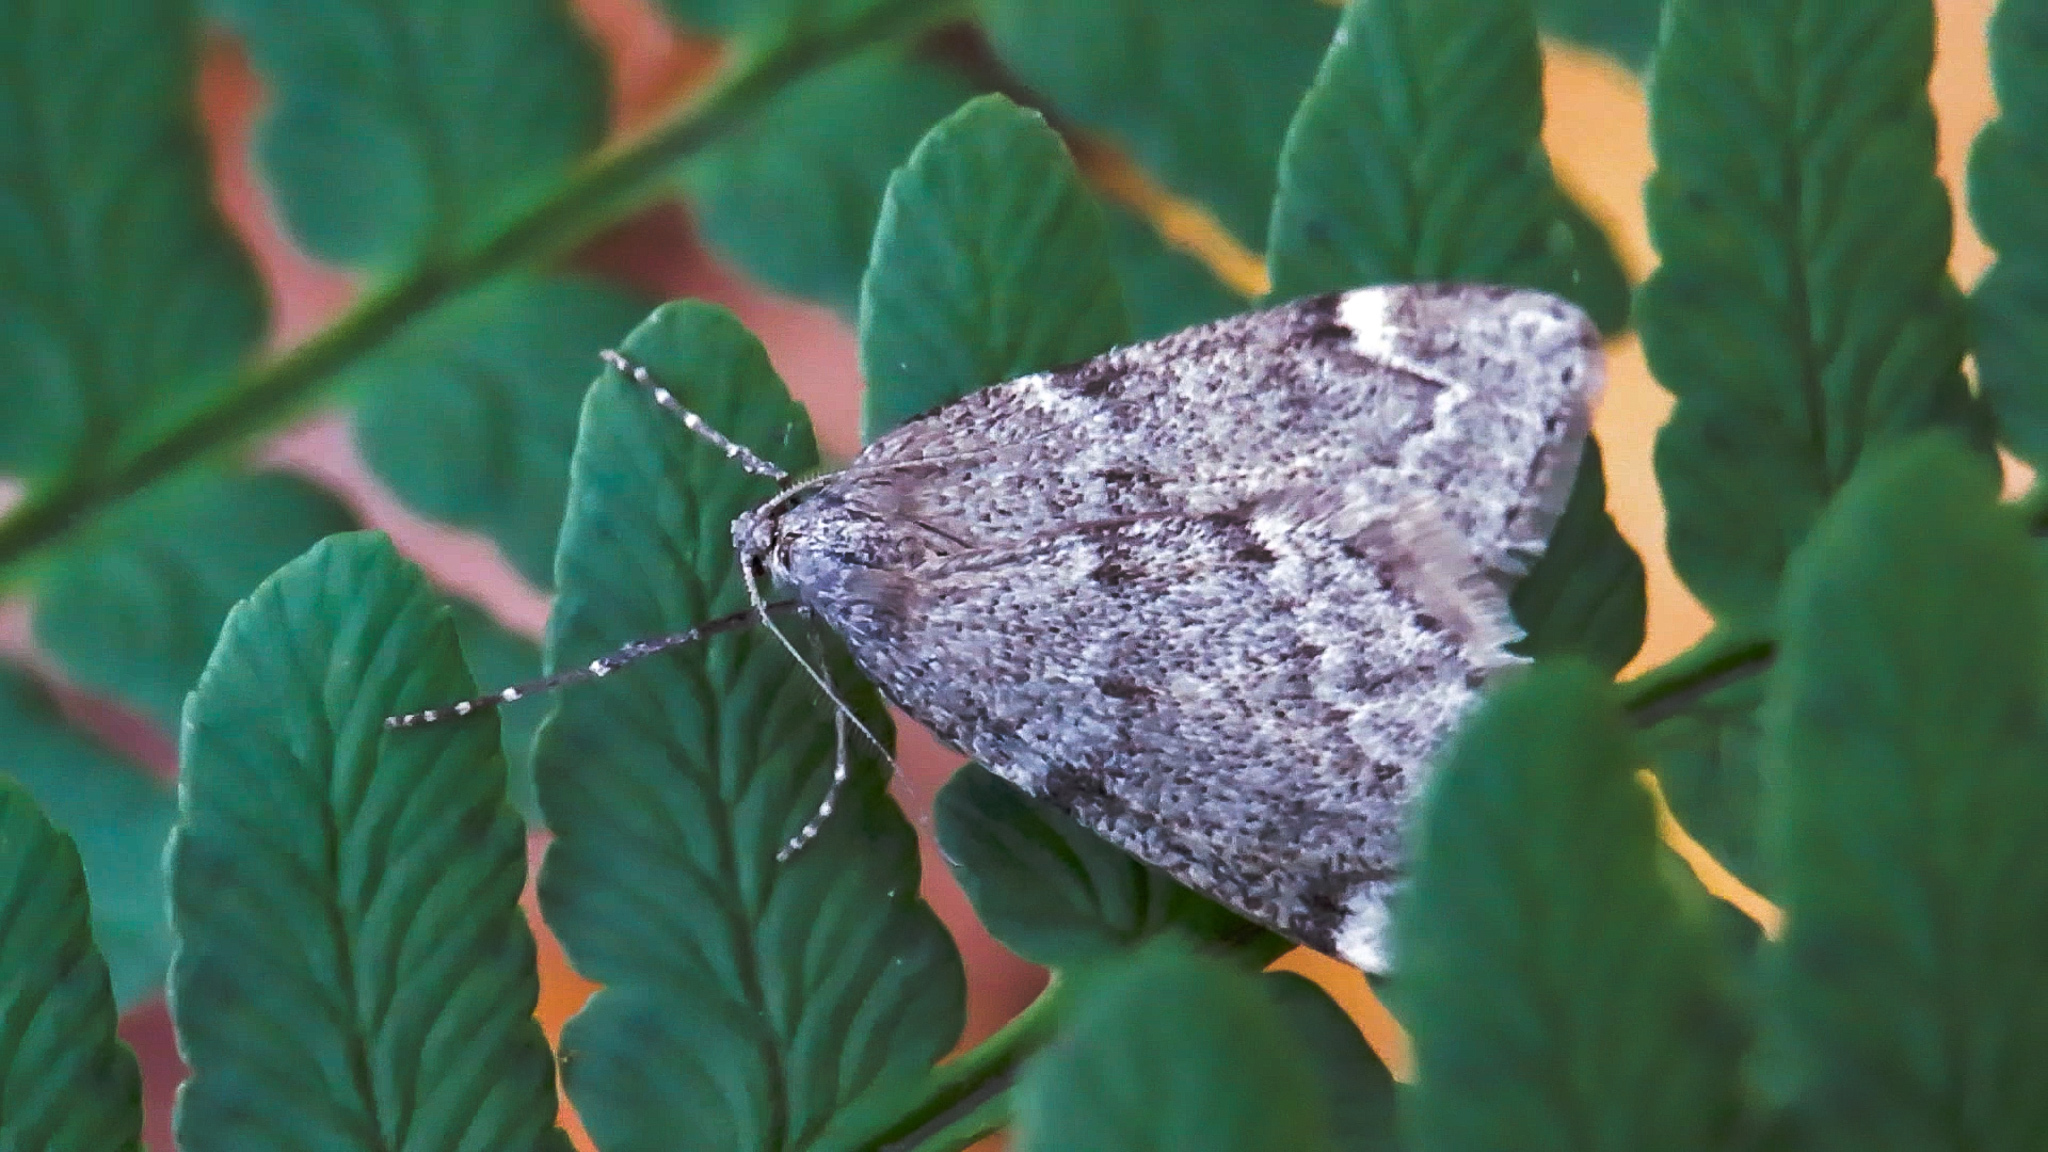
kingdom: Animalia
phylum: Arthropoda
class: Insecta
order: Lepidoptera
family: Geometridae
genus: Alsophila
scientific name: Alsophila pometaria
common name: Fall cankerworm
